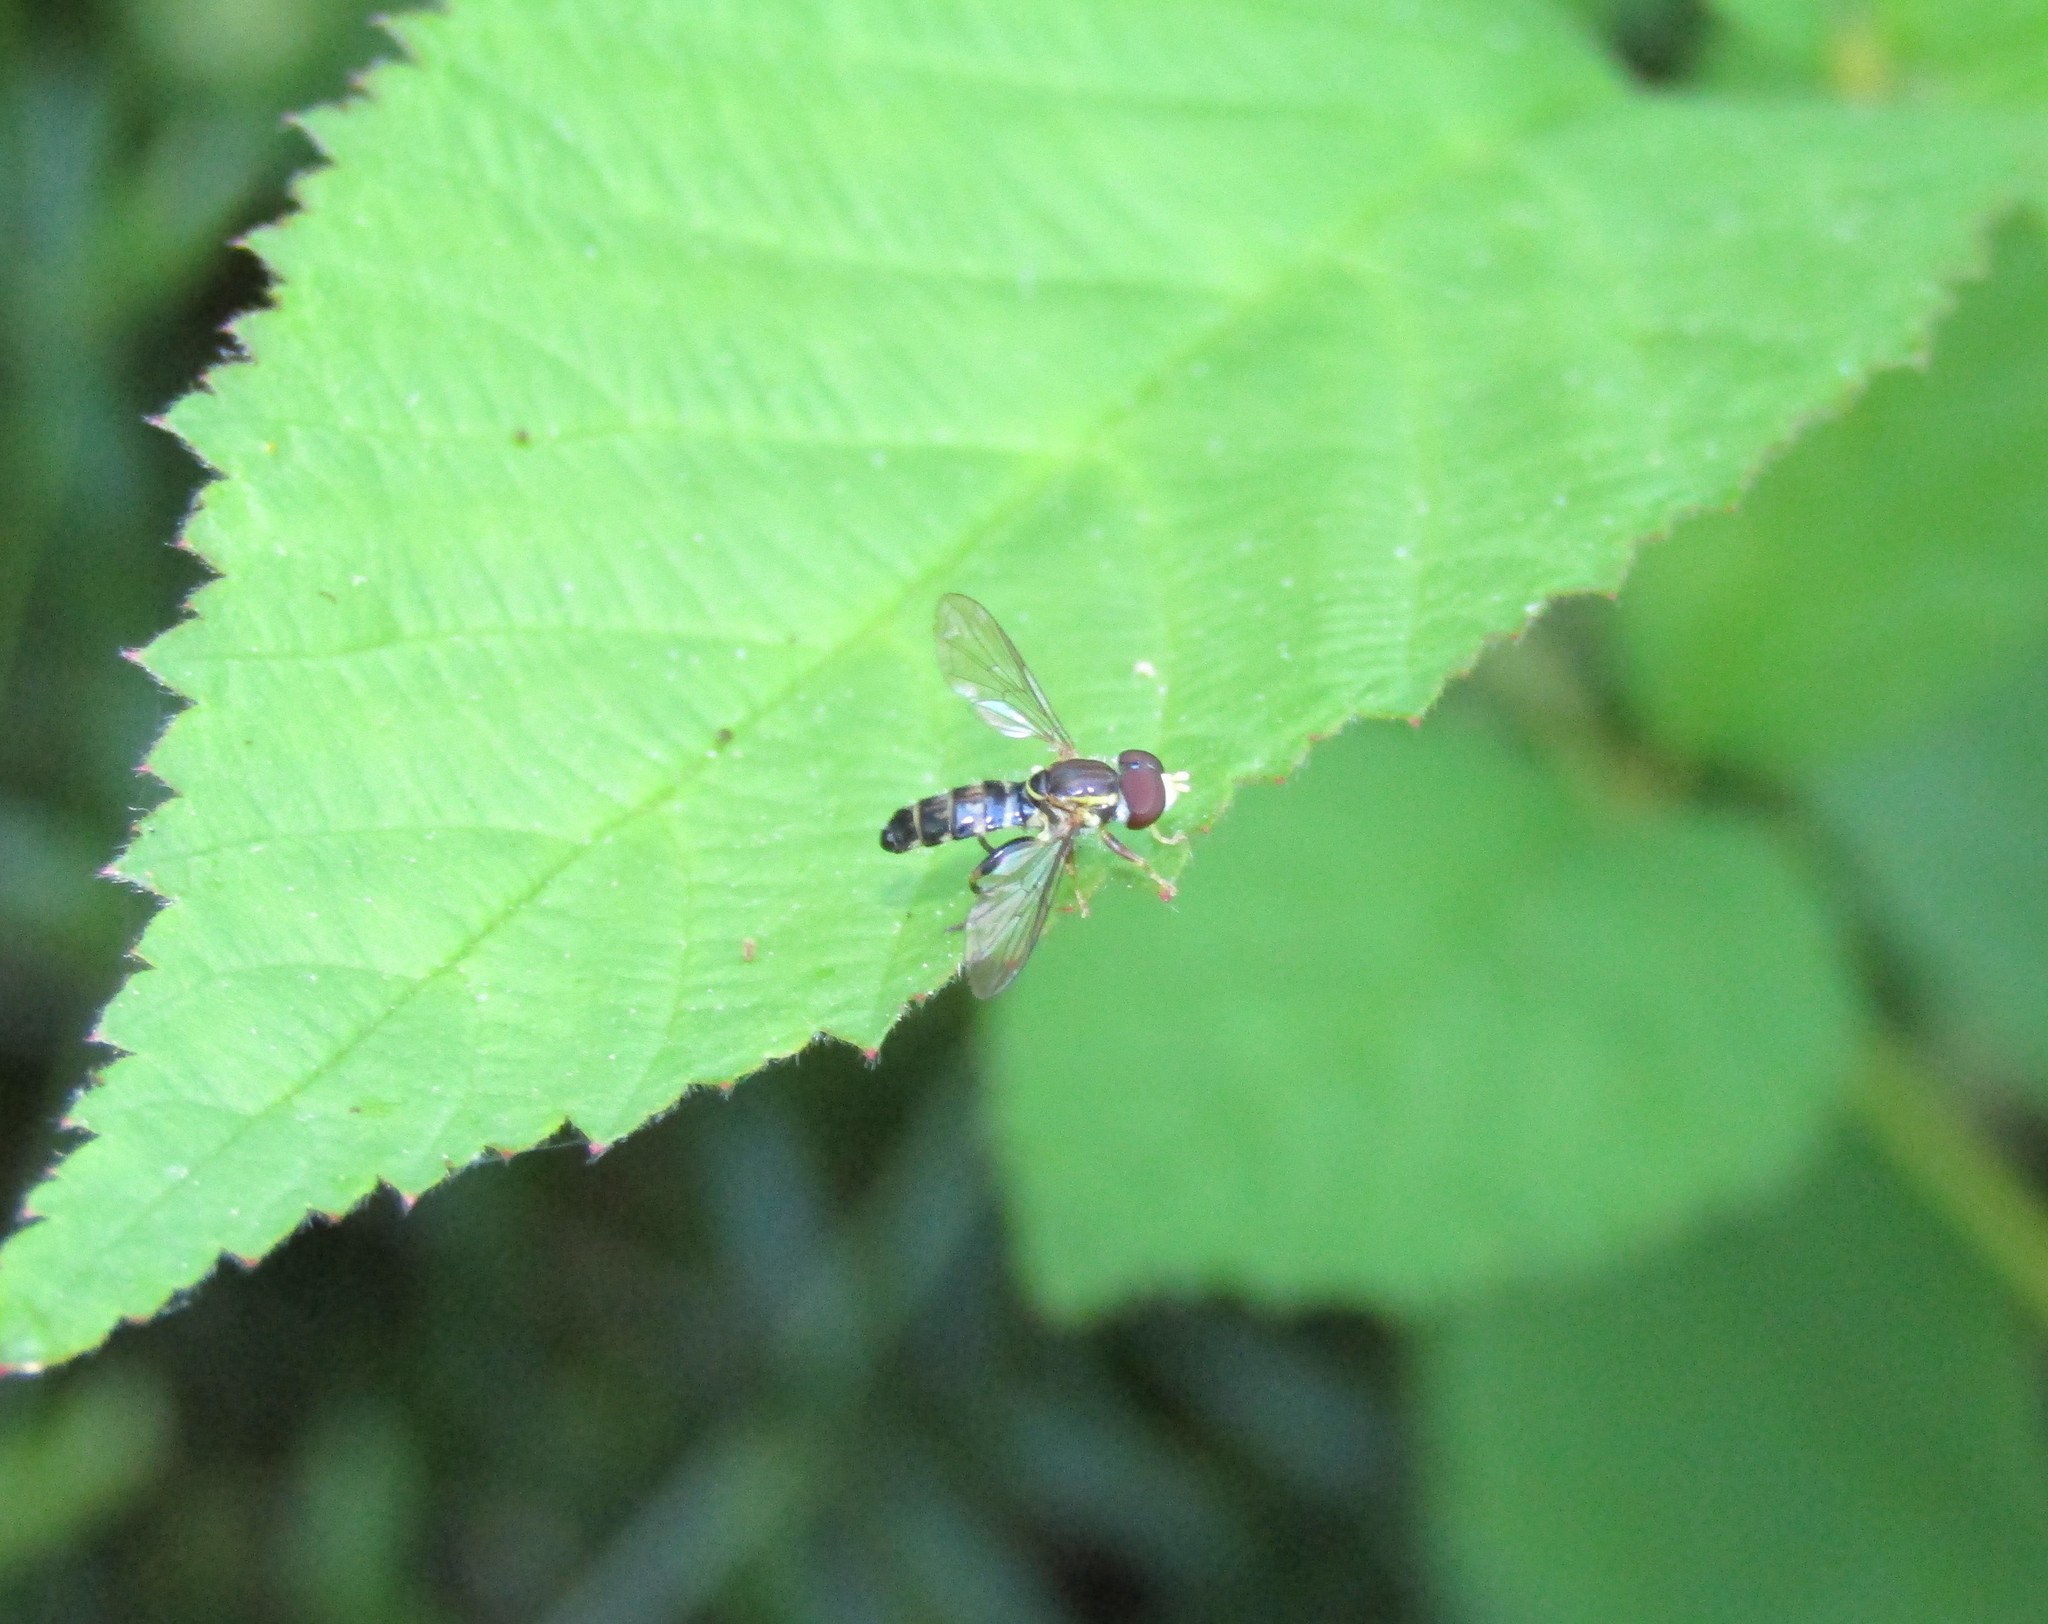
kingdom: Animalia
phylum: Arthropoda
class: Insecta
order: Diptera
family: Syrphidae
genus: Toxomerus
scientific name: Toxomerus geminatus
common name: Eastern calligrapher
